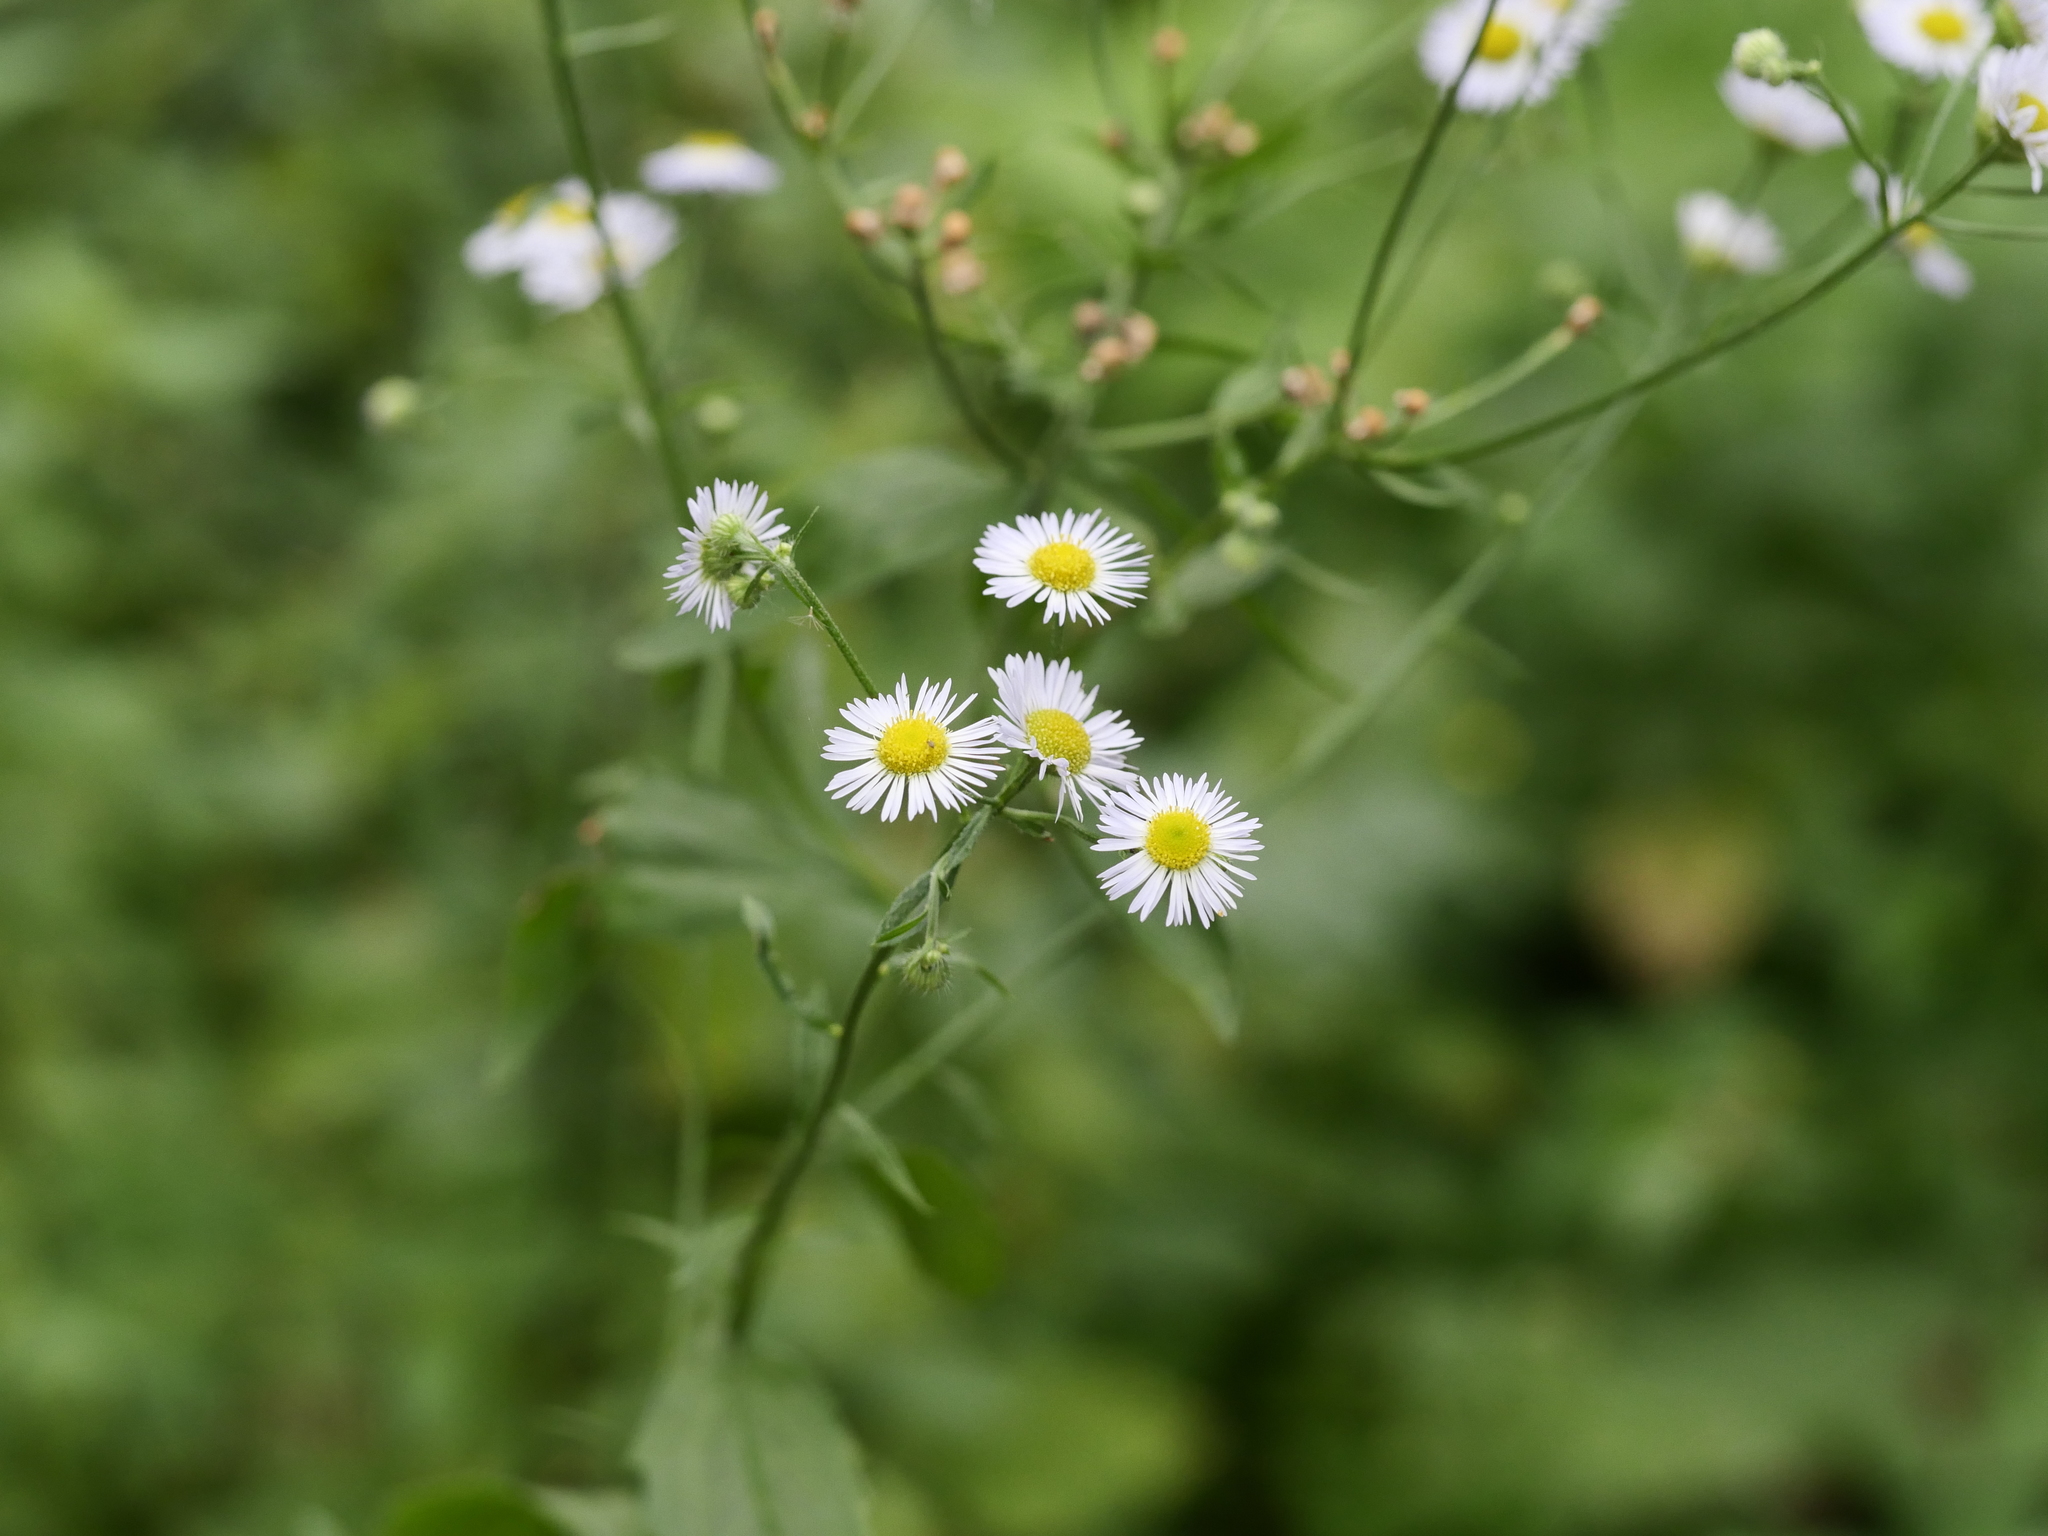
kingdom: Plantae
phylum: Tracheophyta
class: Magnoliopsida
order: Asterales
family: Asteraceae
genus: Erigeron
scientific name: Erigeron annuus
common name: Tall fleabane
